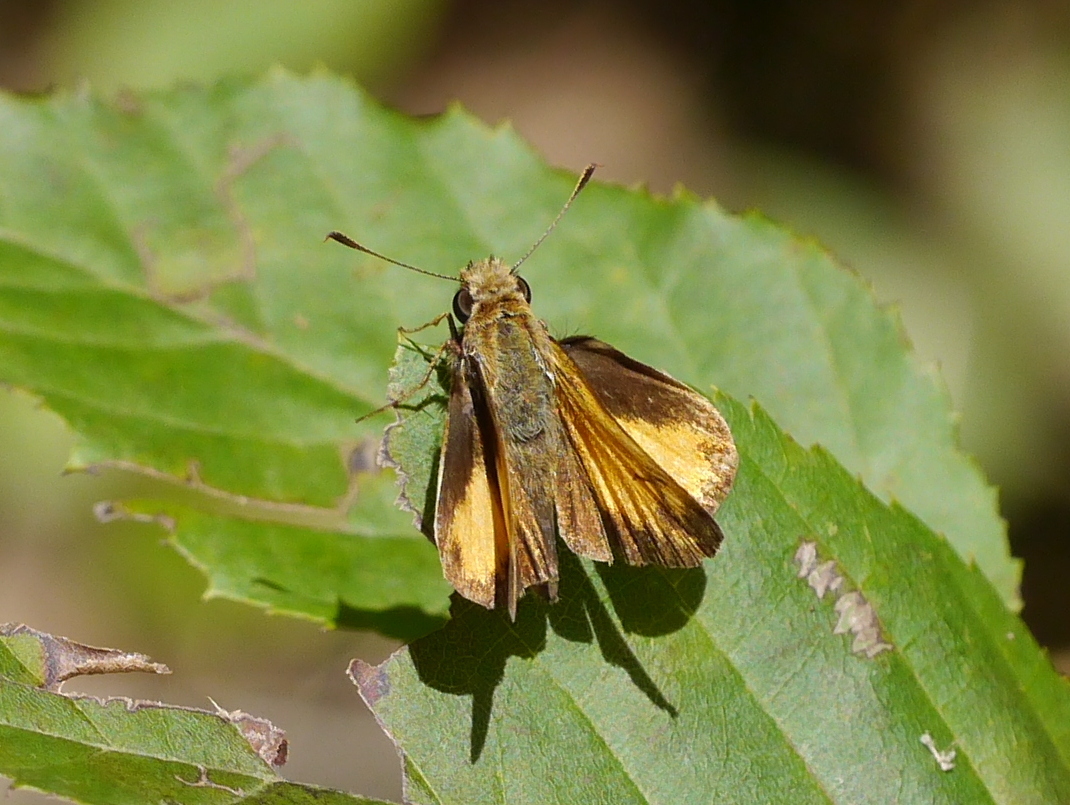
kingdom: Animalia
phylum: Arthropoda
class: Insecta
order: Lepidoptera
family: Hesperiidae
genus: Lon
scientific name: Lon zabulon
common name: Zabulon skipper
